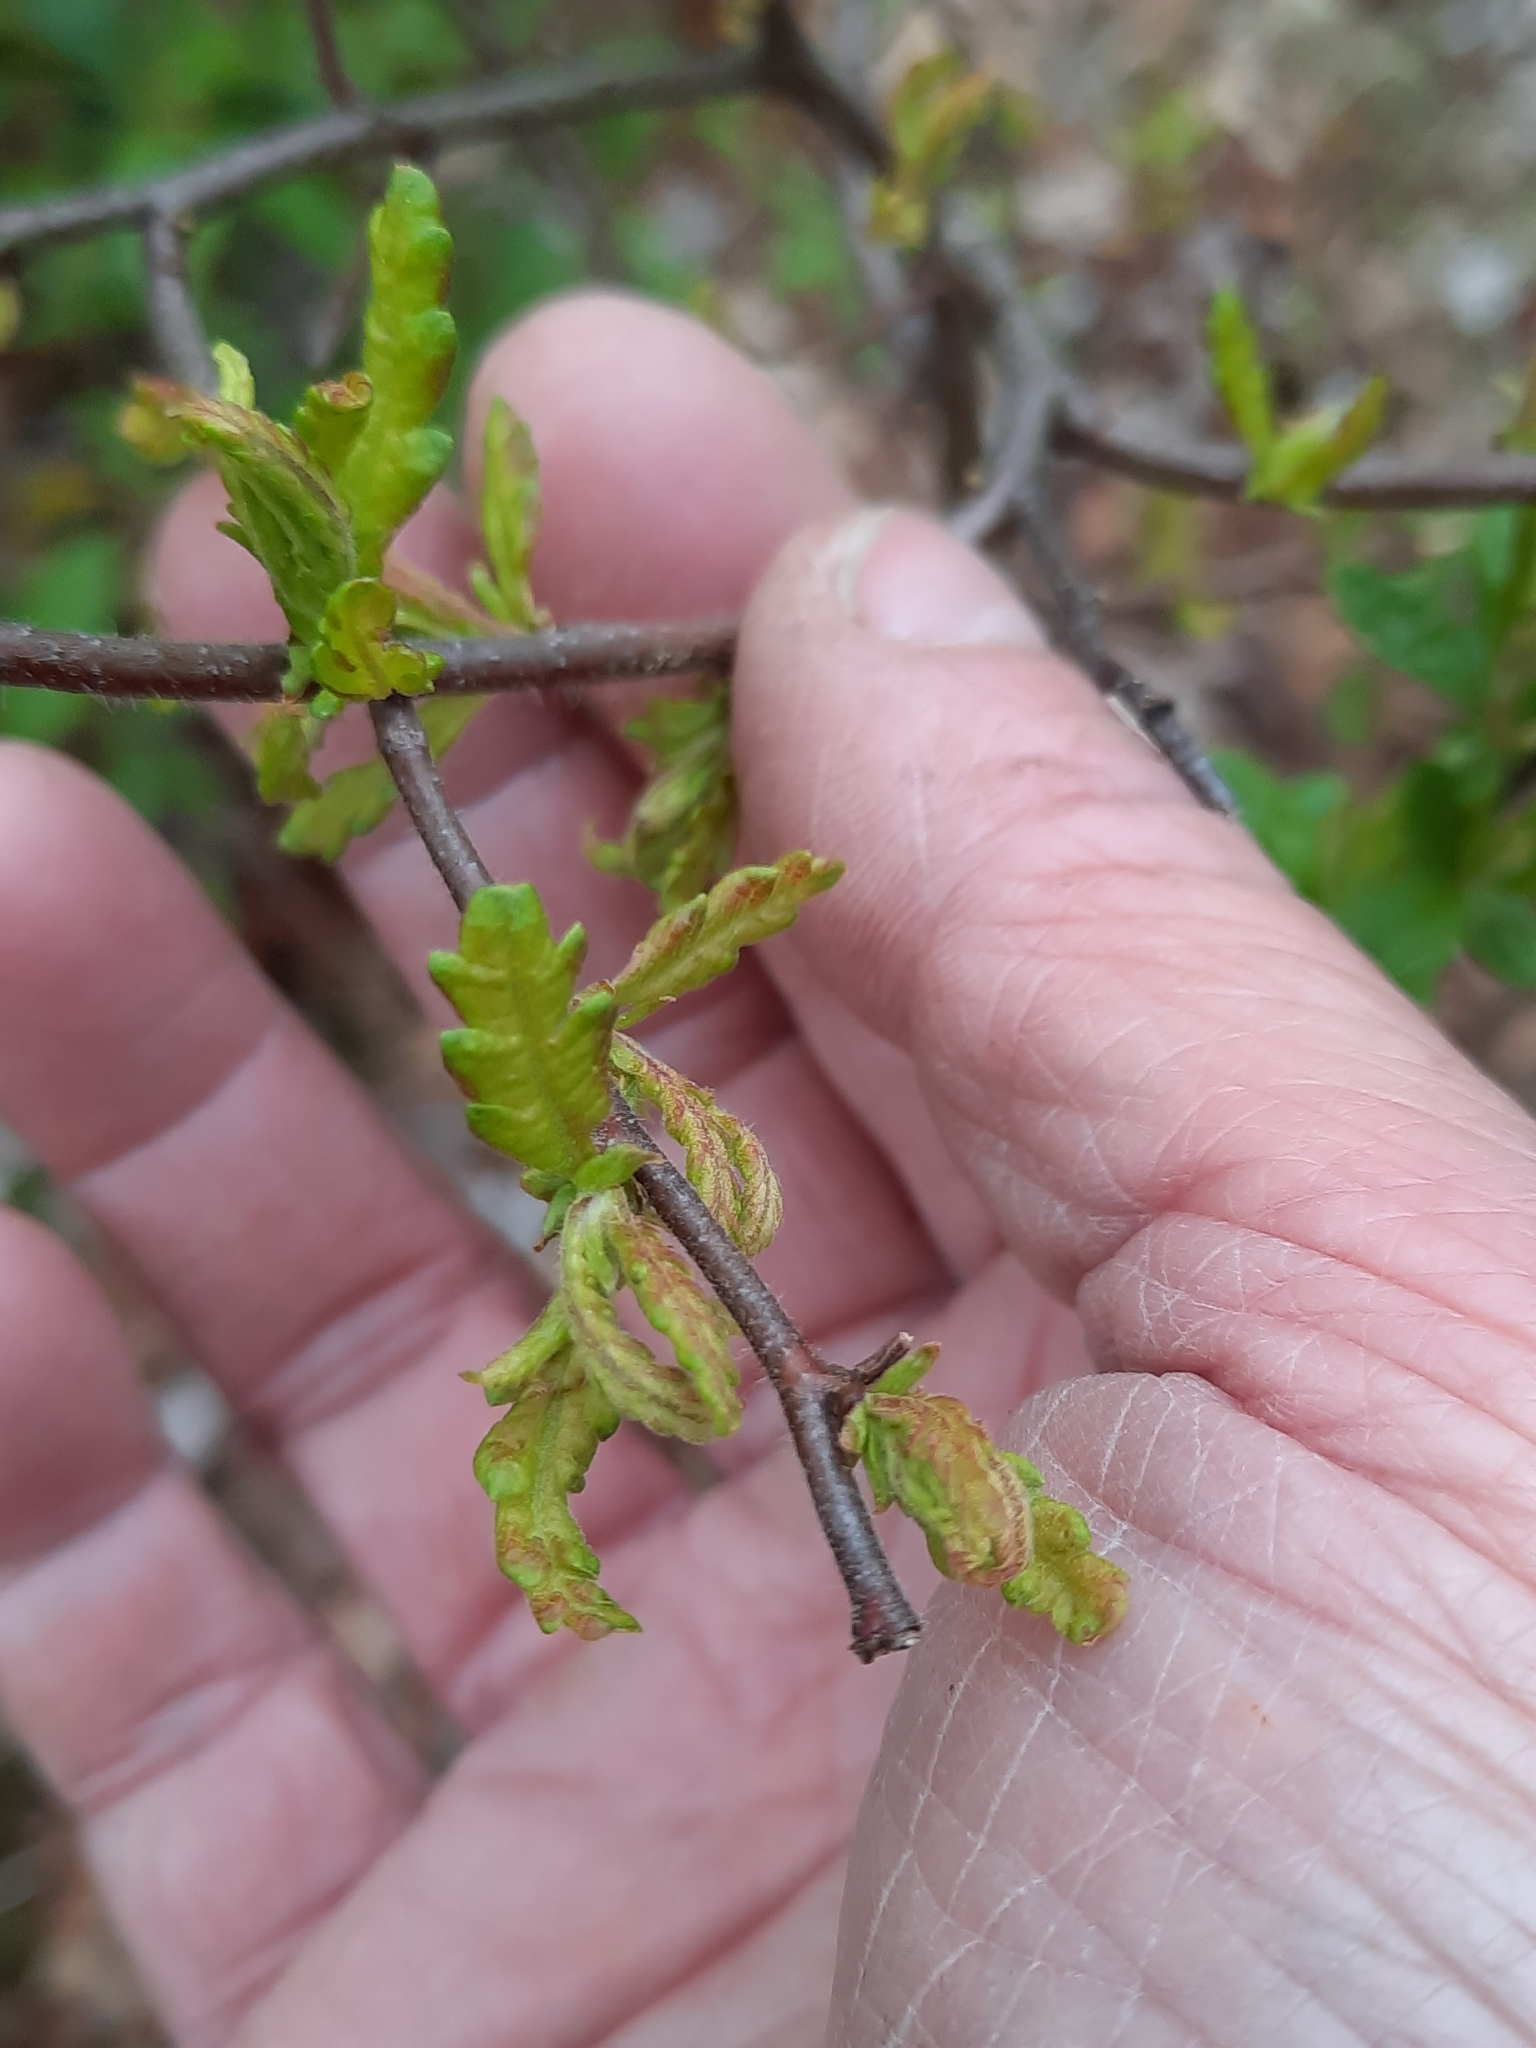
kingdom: Plantae
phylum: Tracheophyta
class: Magnoliopsida
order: Fagales
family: Myricaceae
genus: Comptonia
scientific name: Comptonia peregrina
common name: Sweet-fern
